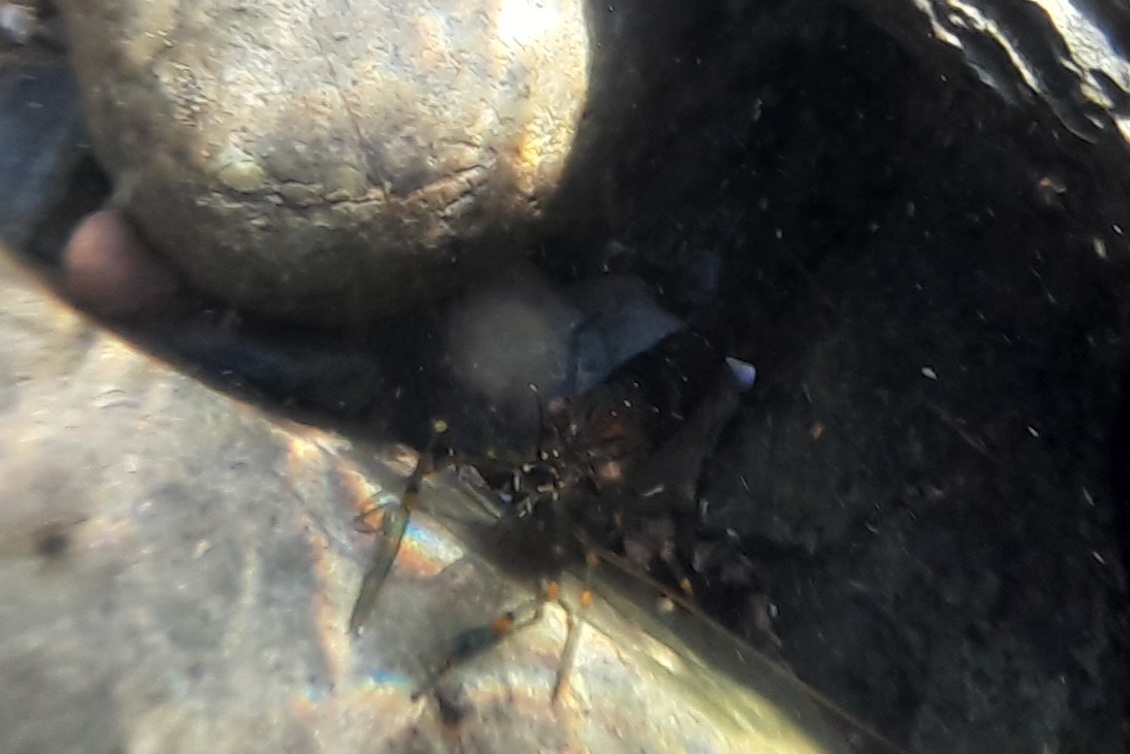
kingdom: Animalia
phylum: Arthropoda
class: Malacostraca
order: Decapoda
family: Palaemonidae
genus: Palaemon
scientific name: Palaemon elegans
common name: Grass prawm
